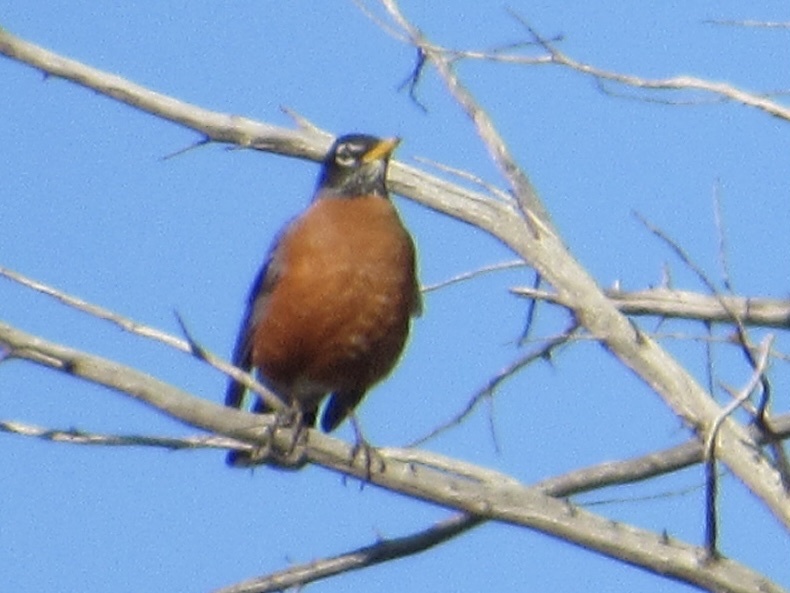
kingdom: Animalia
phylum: Chordata
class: Aves
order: Passeriformes
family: Turdidae
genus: Turdus
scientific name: Turdus migratorius
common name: American robin
